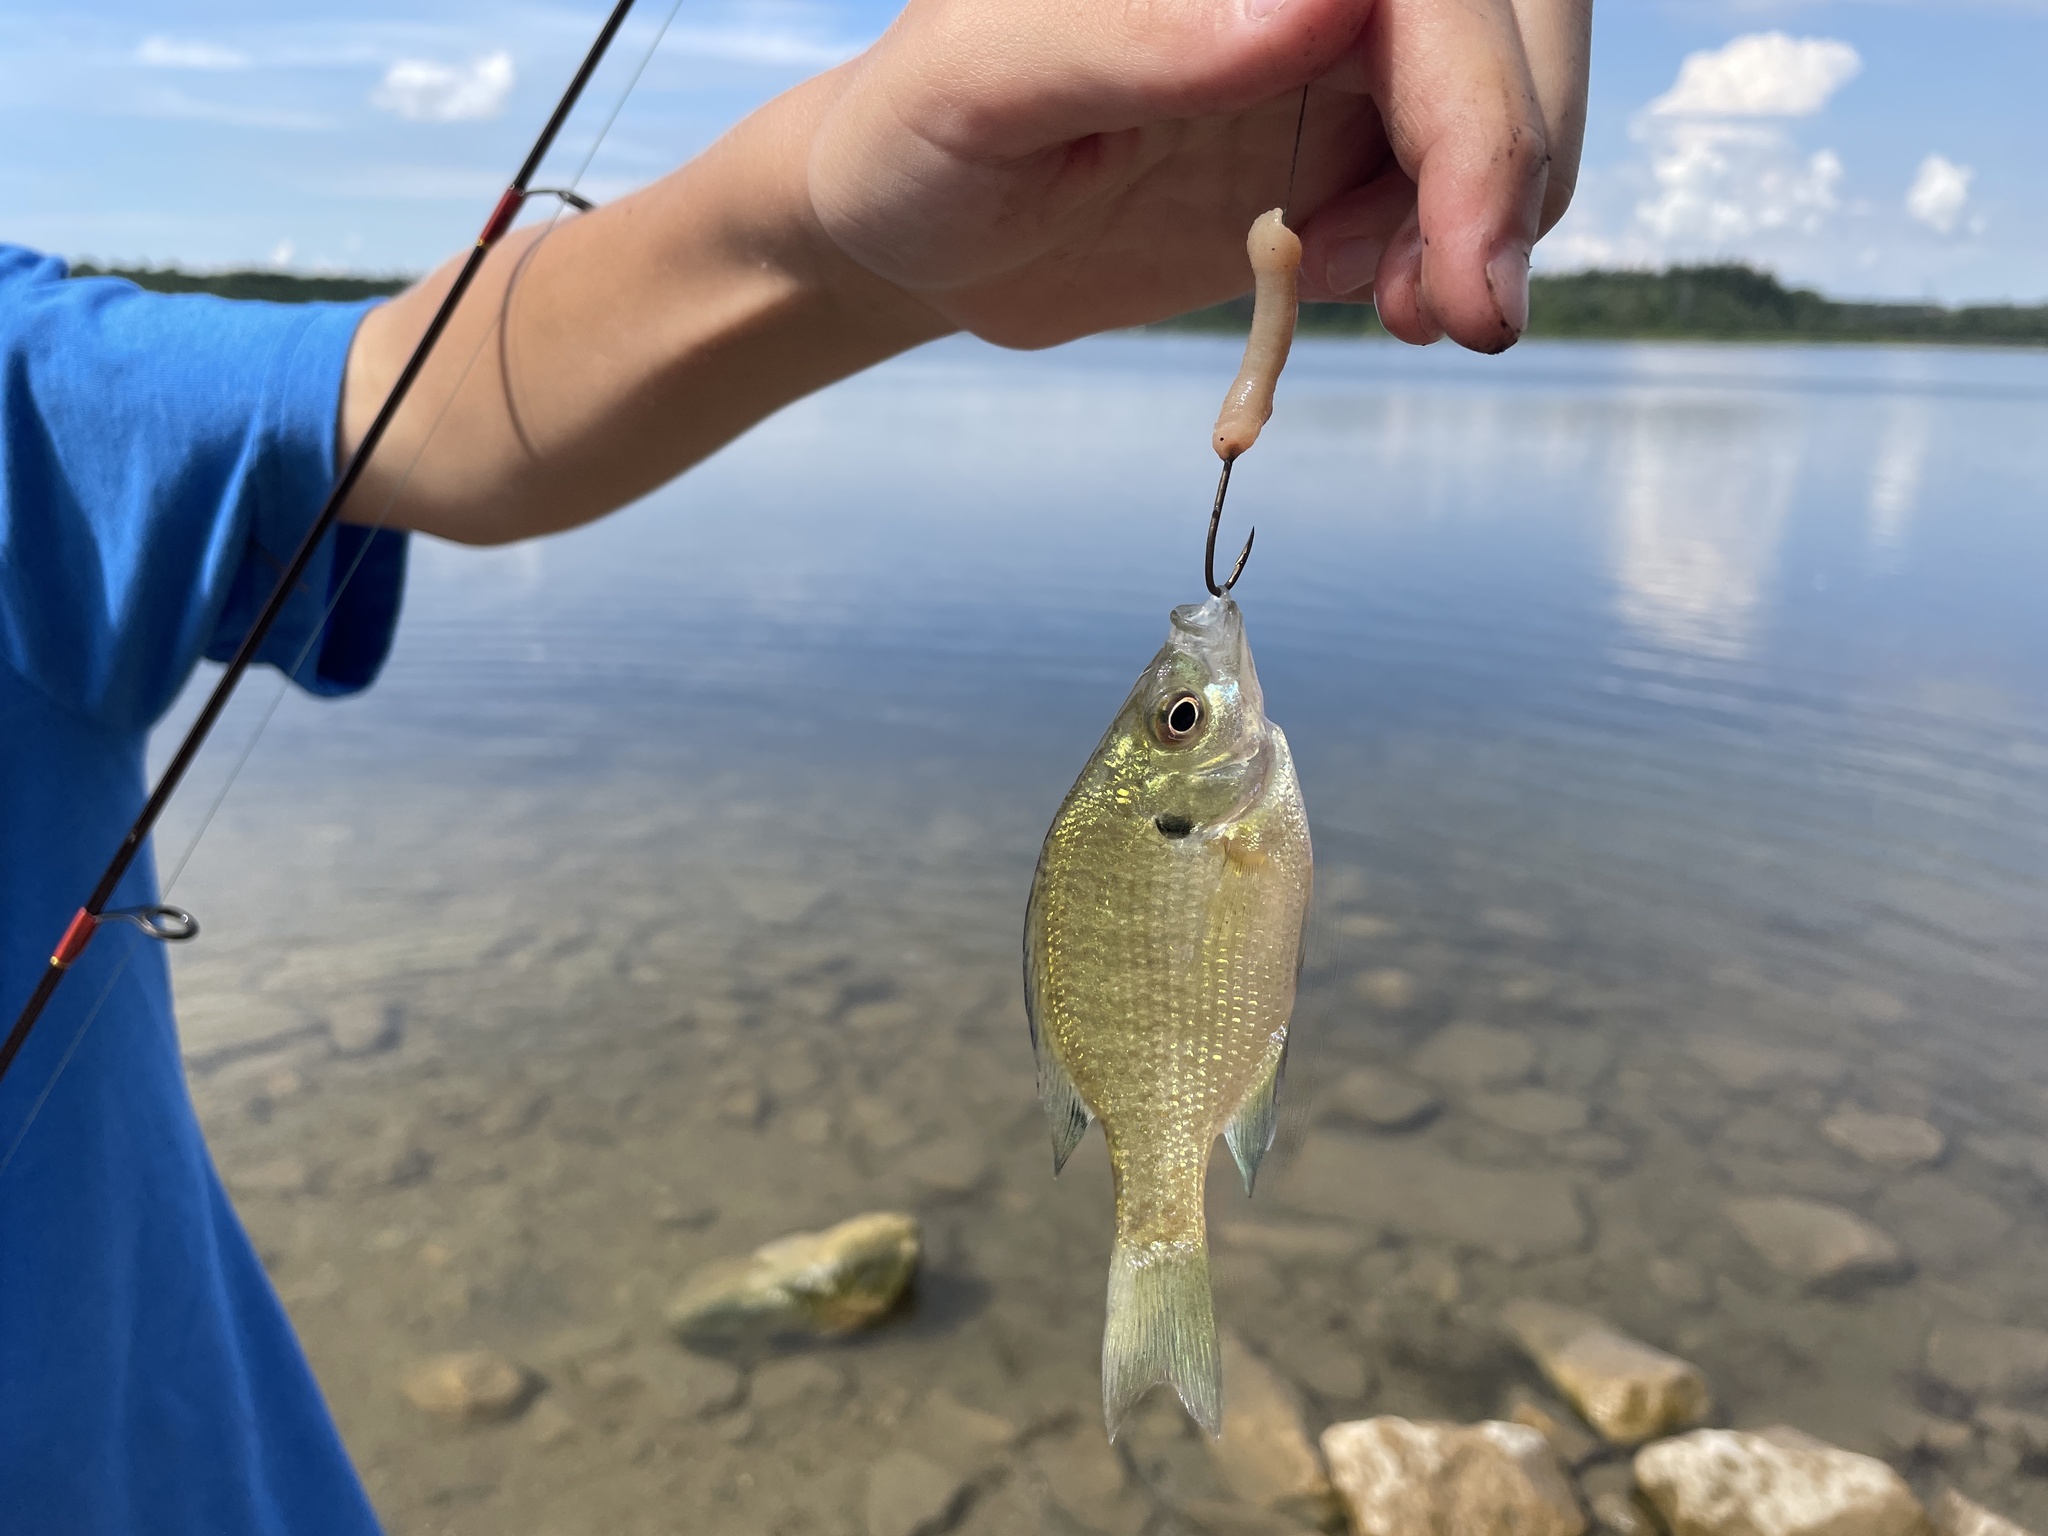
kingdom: Animalia
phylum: Chordata
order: Perciformes
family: Centrarchidae
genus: Lepomis
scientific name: Lepomis macrochirus
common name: Bluegill
